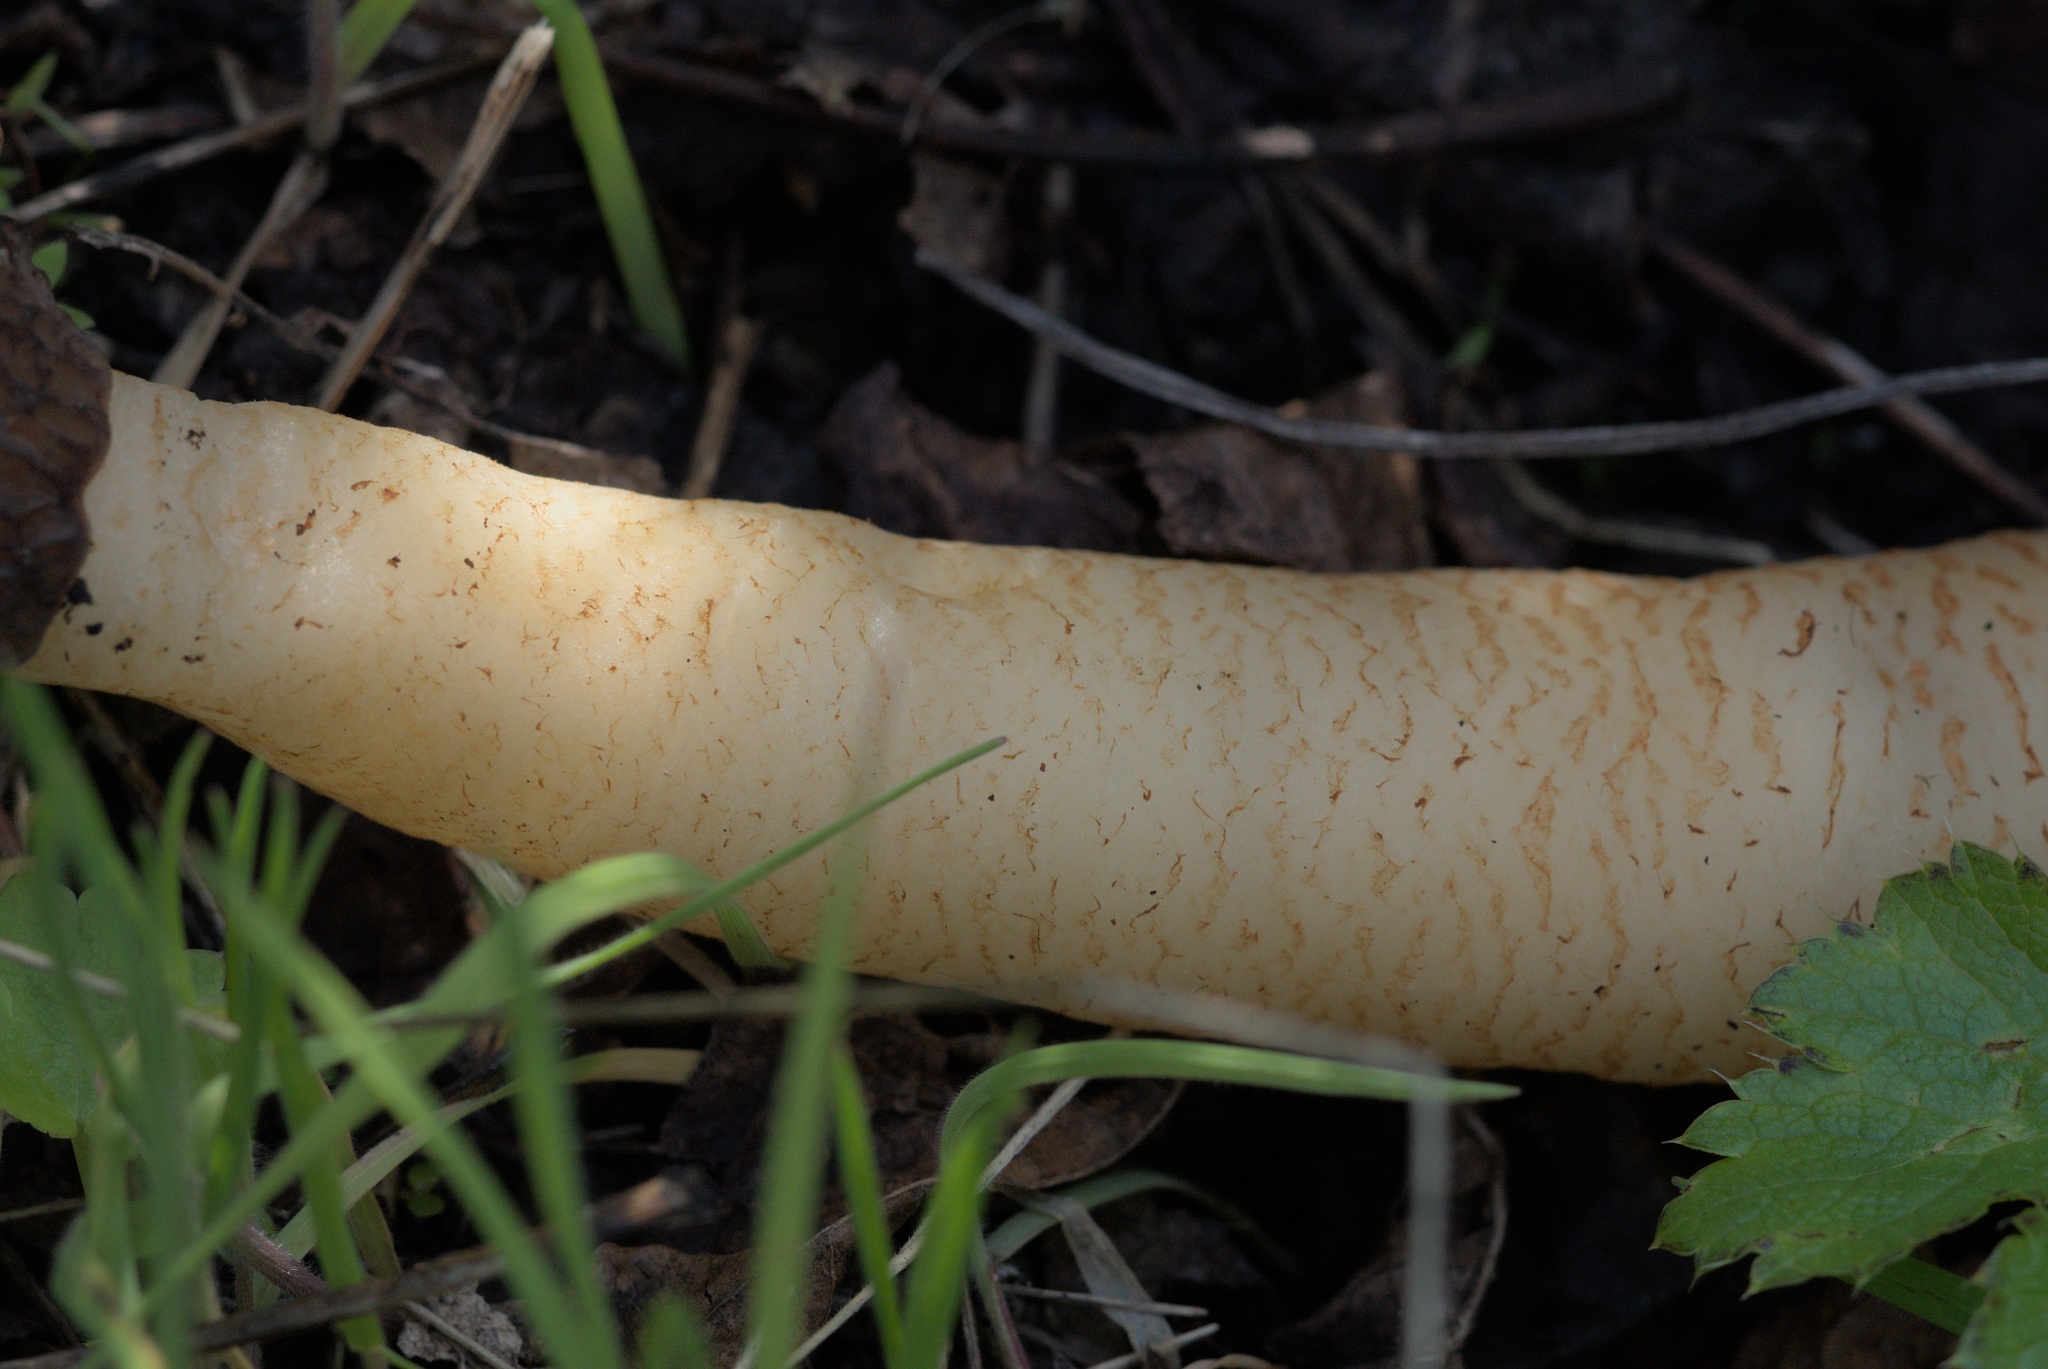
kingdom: Fungi
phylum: Ascomycota
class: Pezizomycetes
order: Pezizales
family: Morchellaceae
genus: Verpa
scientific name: Verpa conica
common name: Thimble morel
